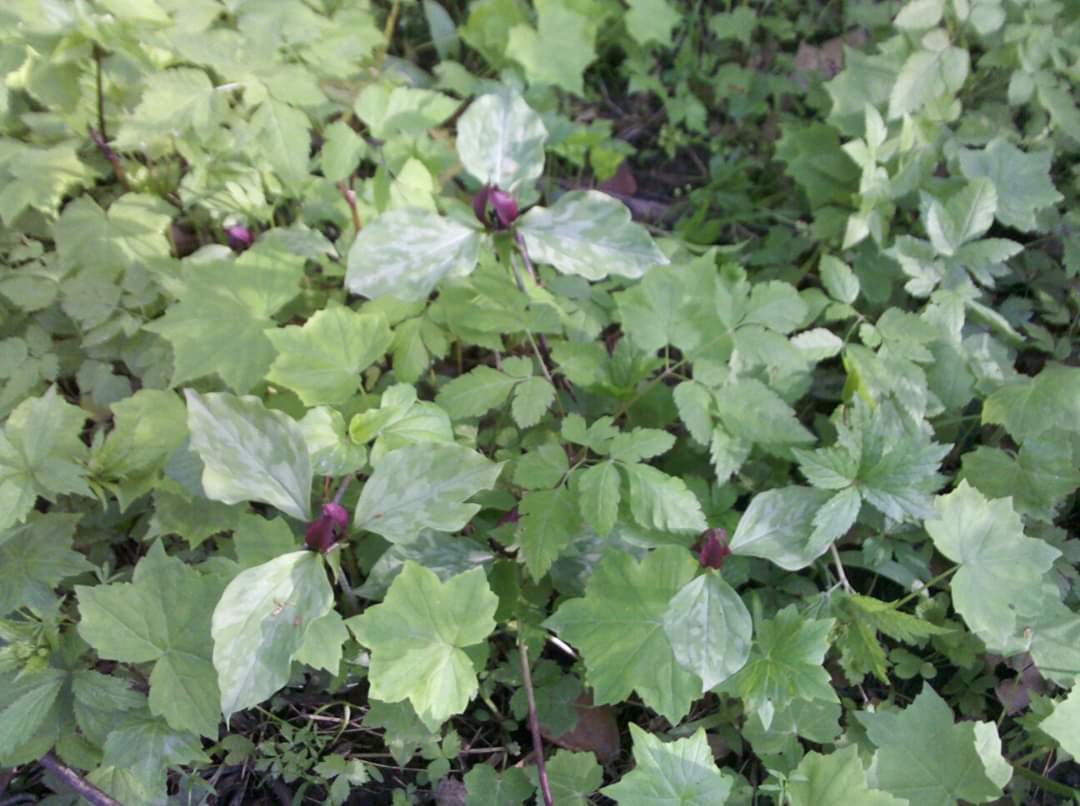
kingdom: Plantae
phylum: Tracheophyta
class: Liliopsida
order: Liliales
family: Melanthiaceae
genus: Trillium
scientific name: Trillium recurvatum
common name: Bloody butcher
